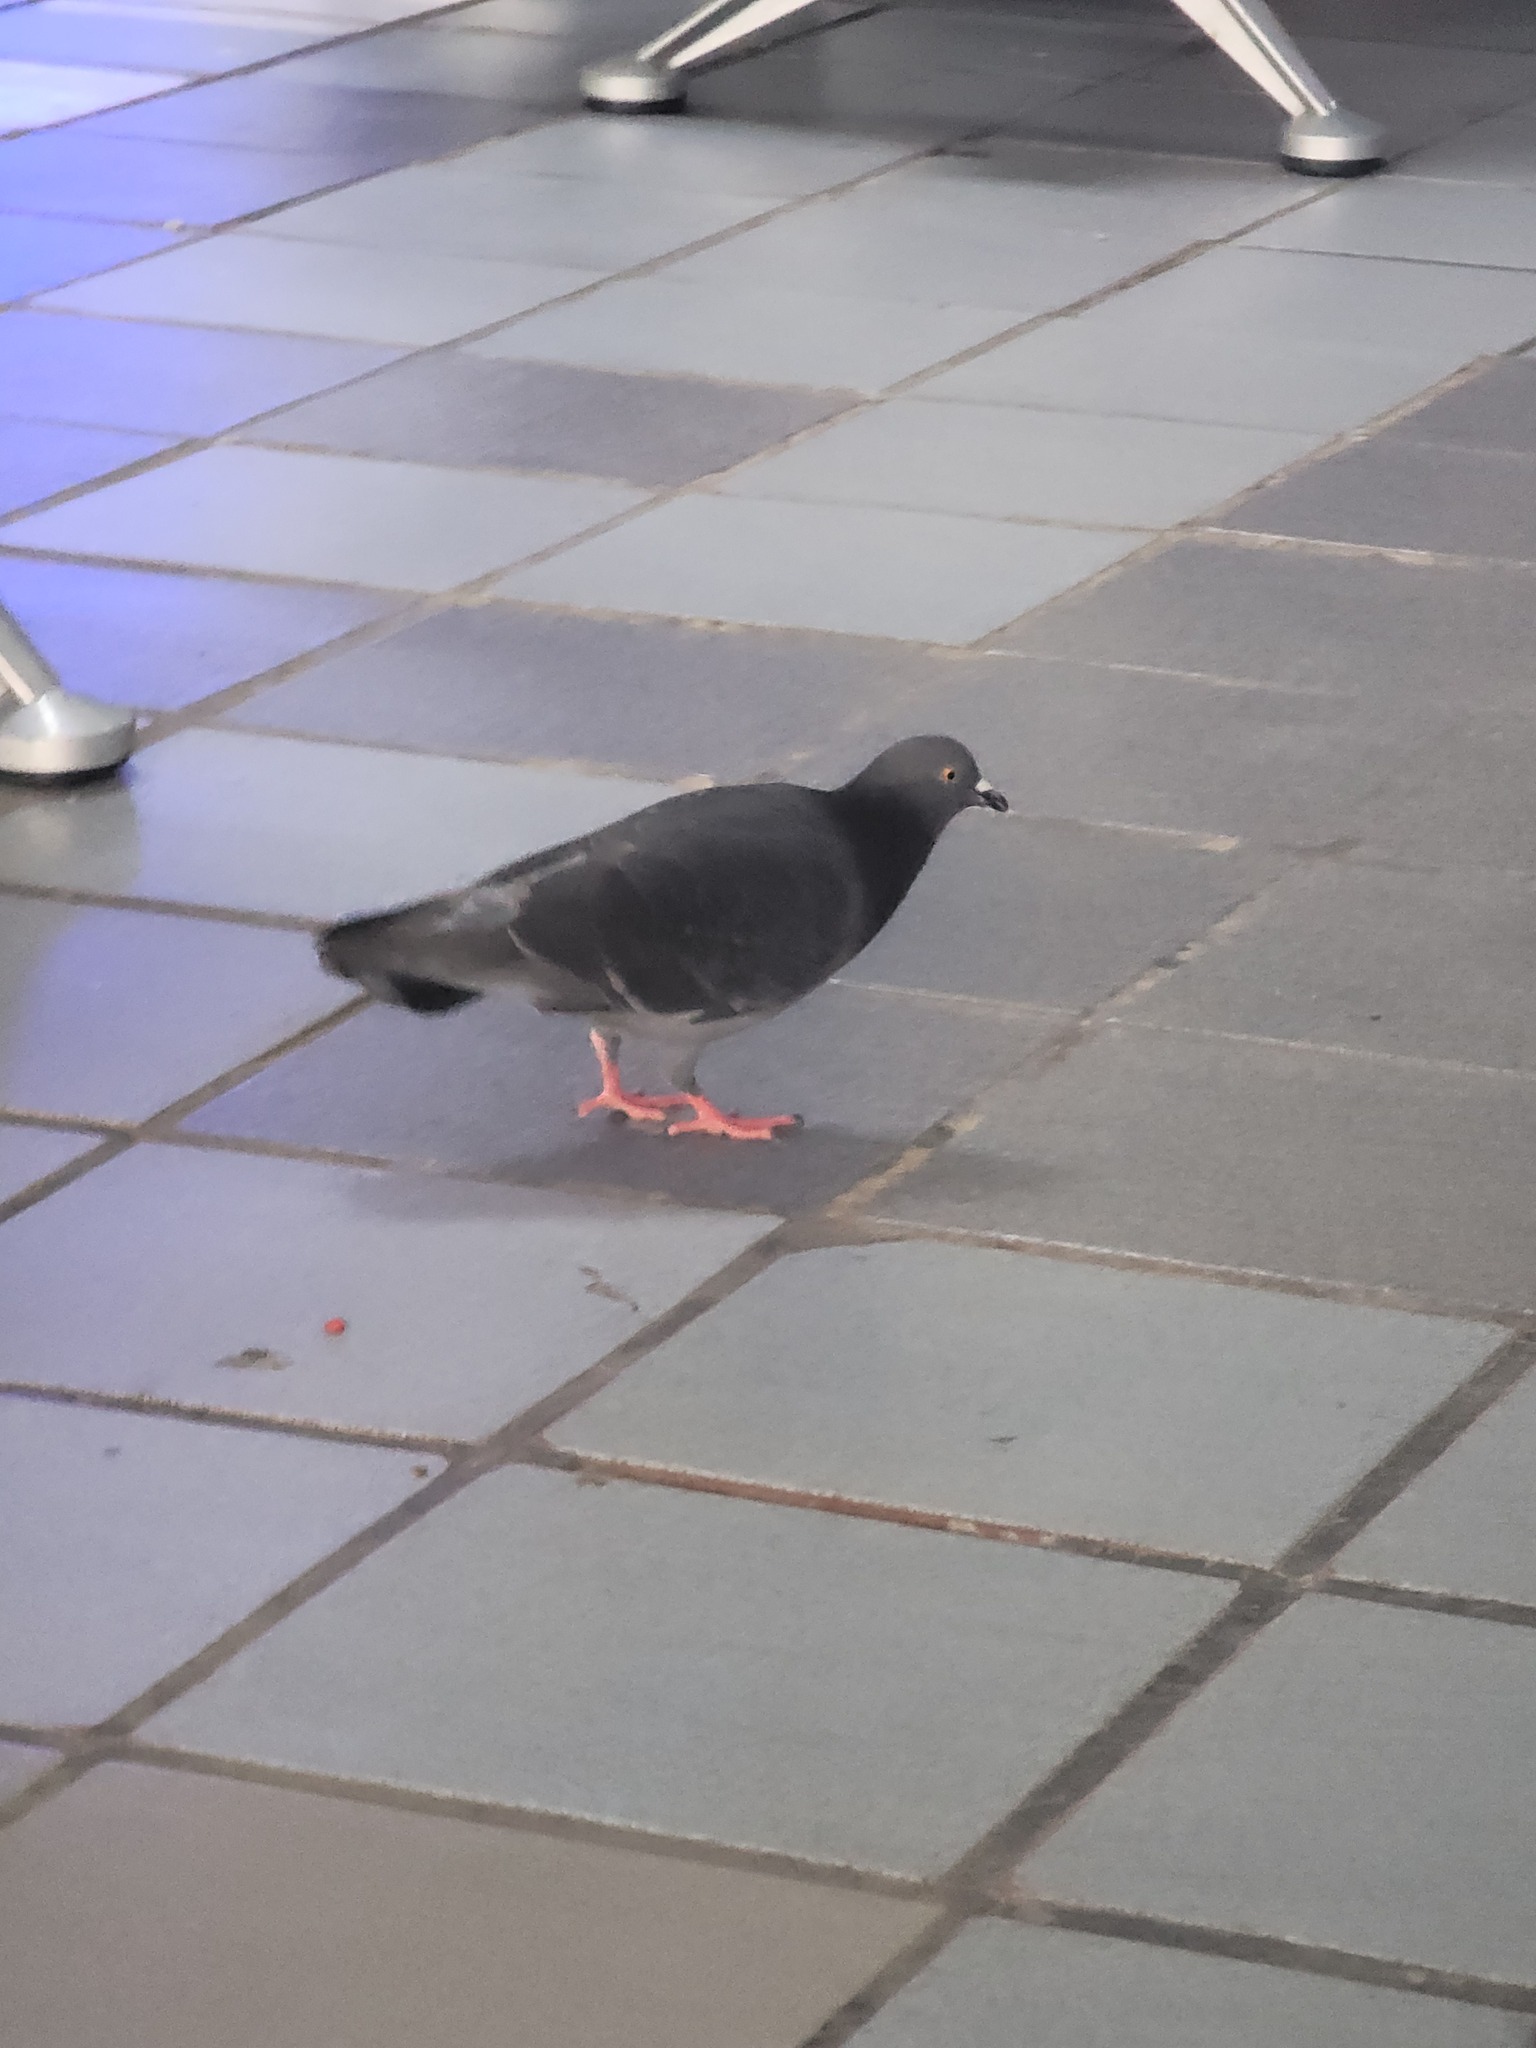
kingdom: Animalia
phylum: Chordata
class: Aves
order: Columbiformes
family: Columbidae
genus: Columba
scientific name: Columba livia
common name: Rock pigeon
